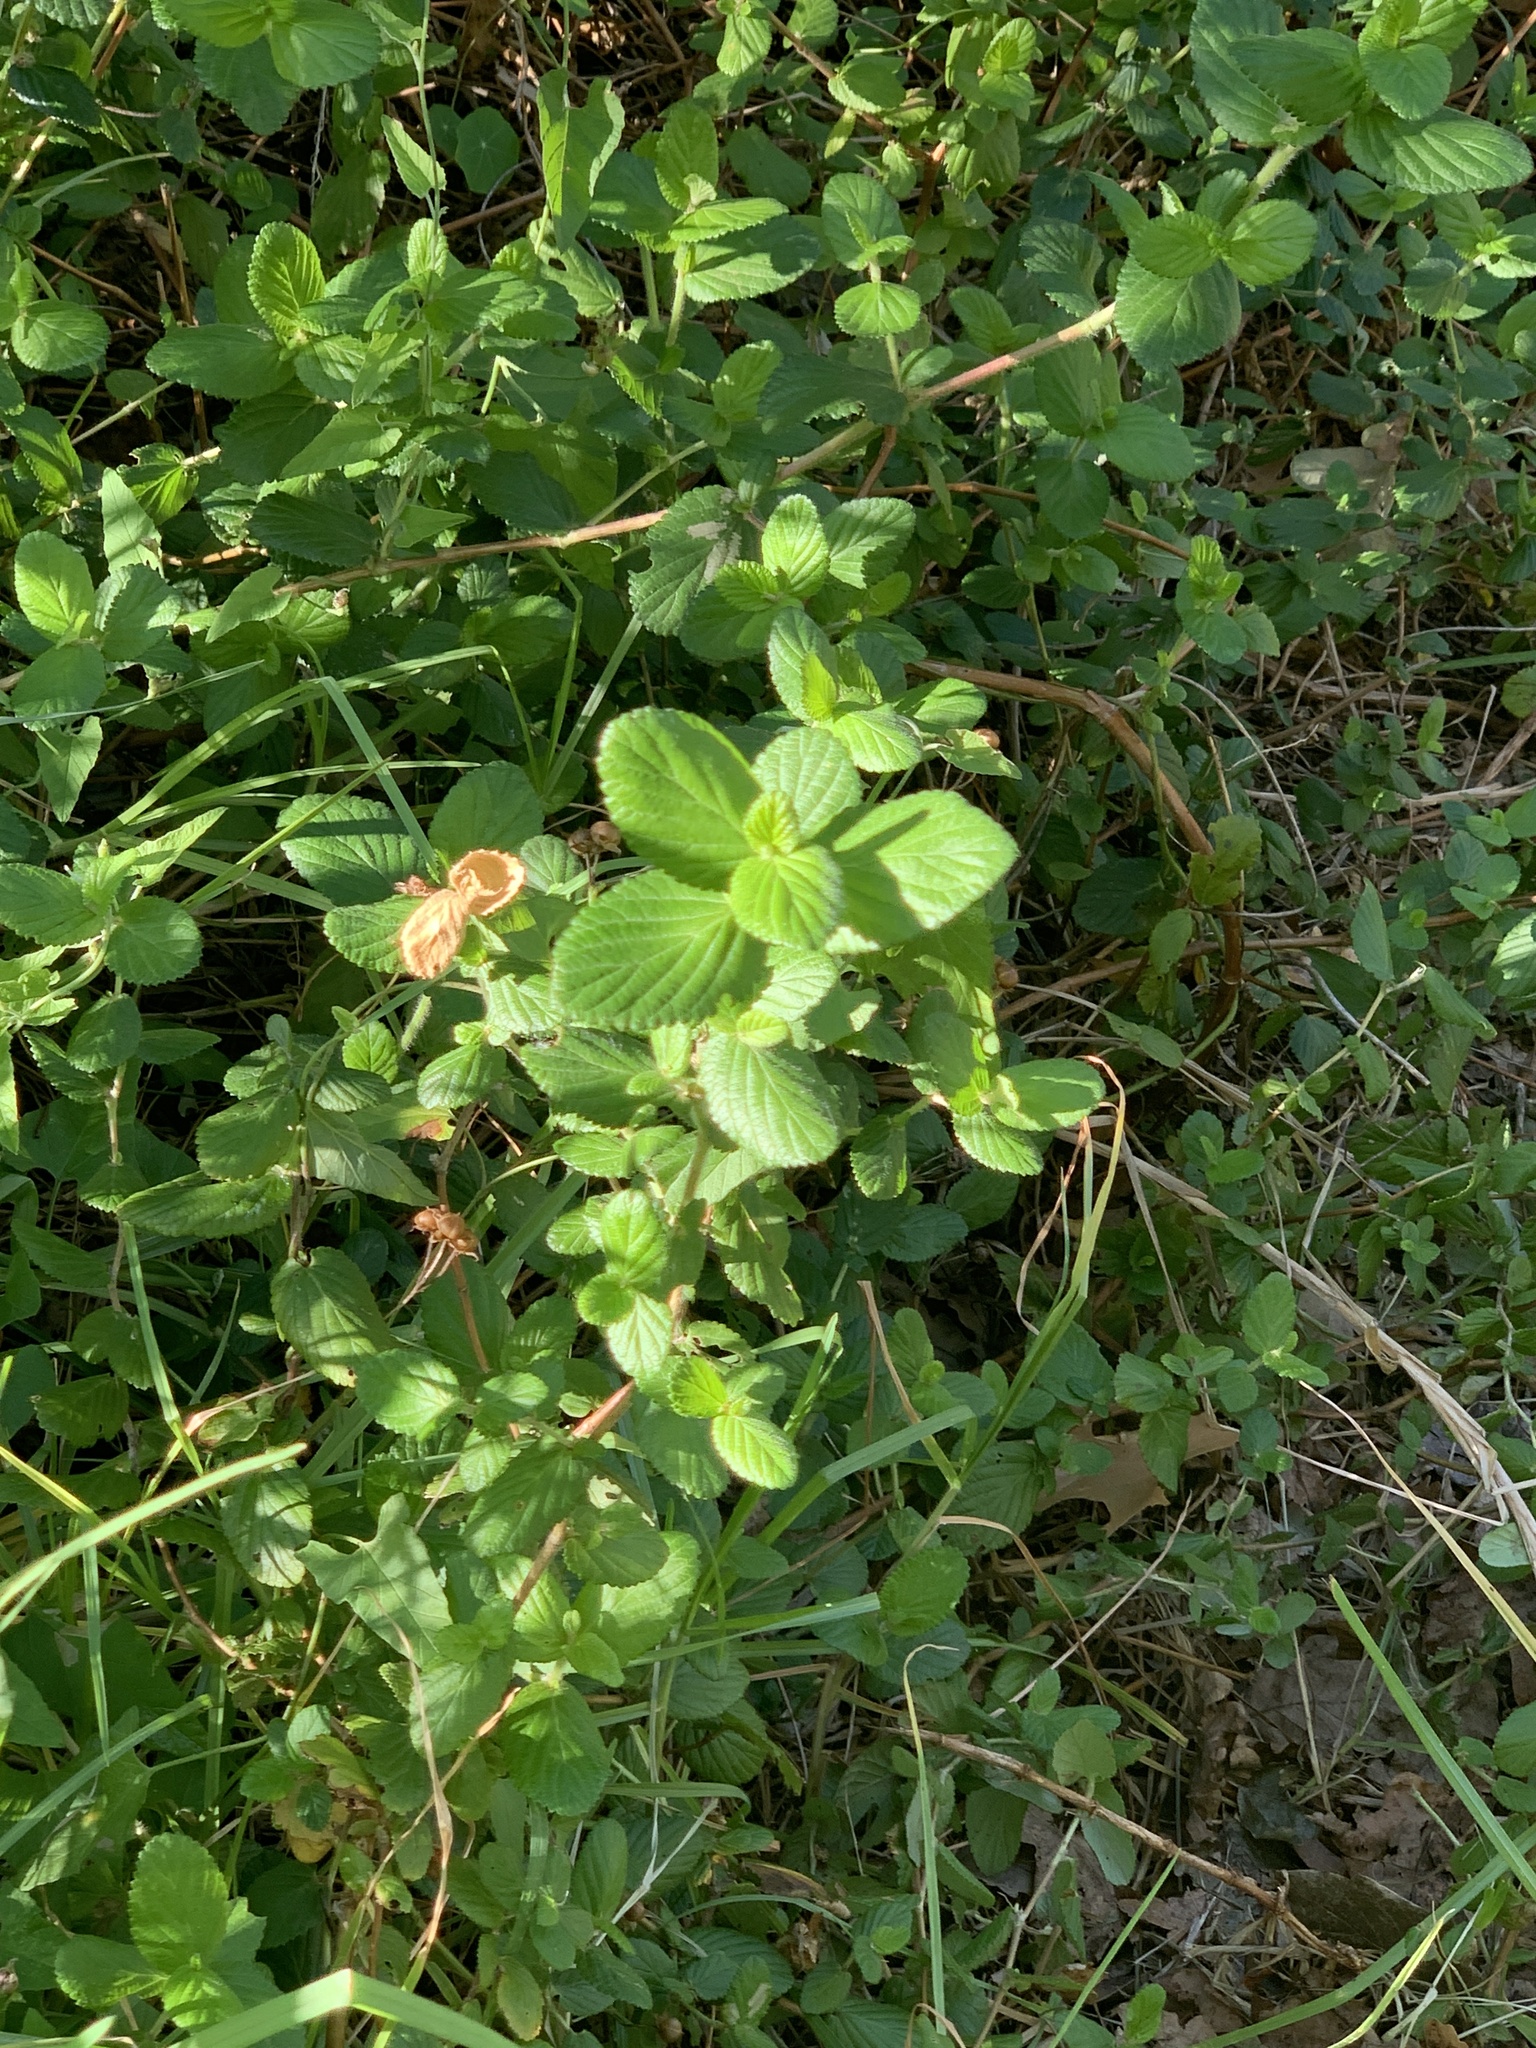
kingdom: Plantae
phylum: Tracheophyta
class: Magnoliopsida
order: Rosales
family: Rosaceae
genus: Cliffortia
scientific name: Cliffortia odorata
